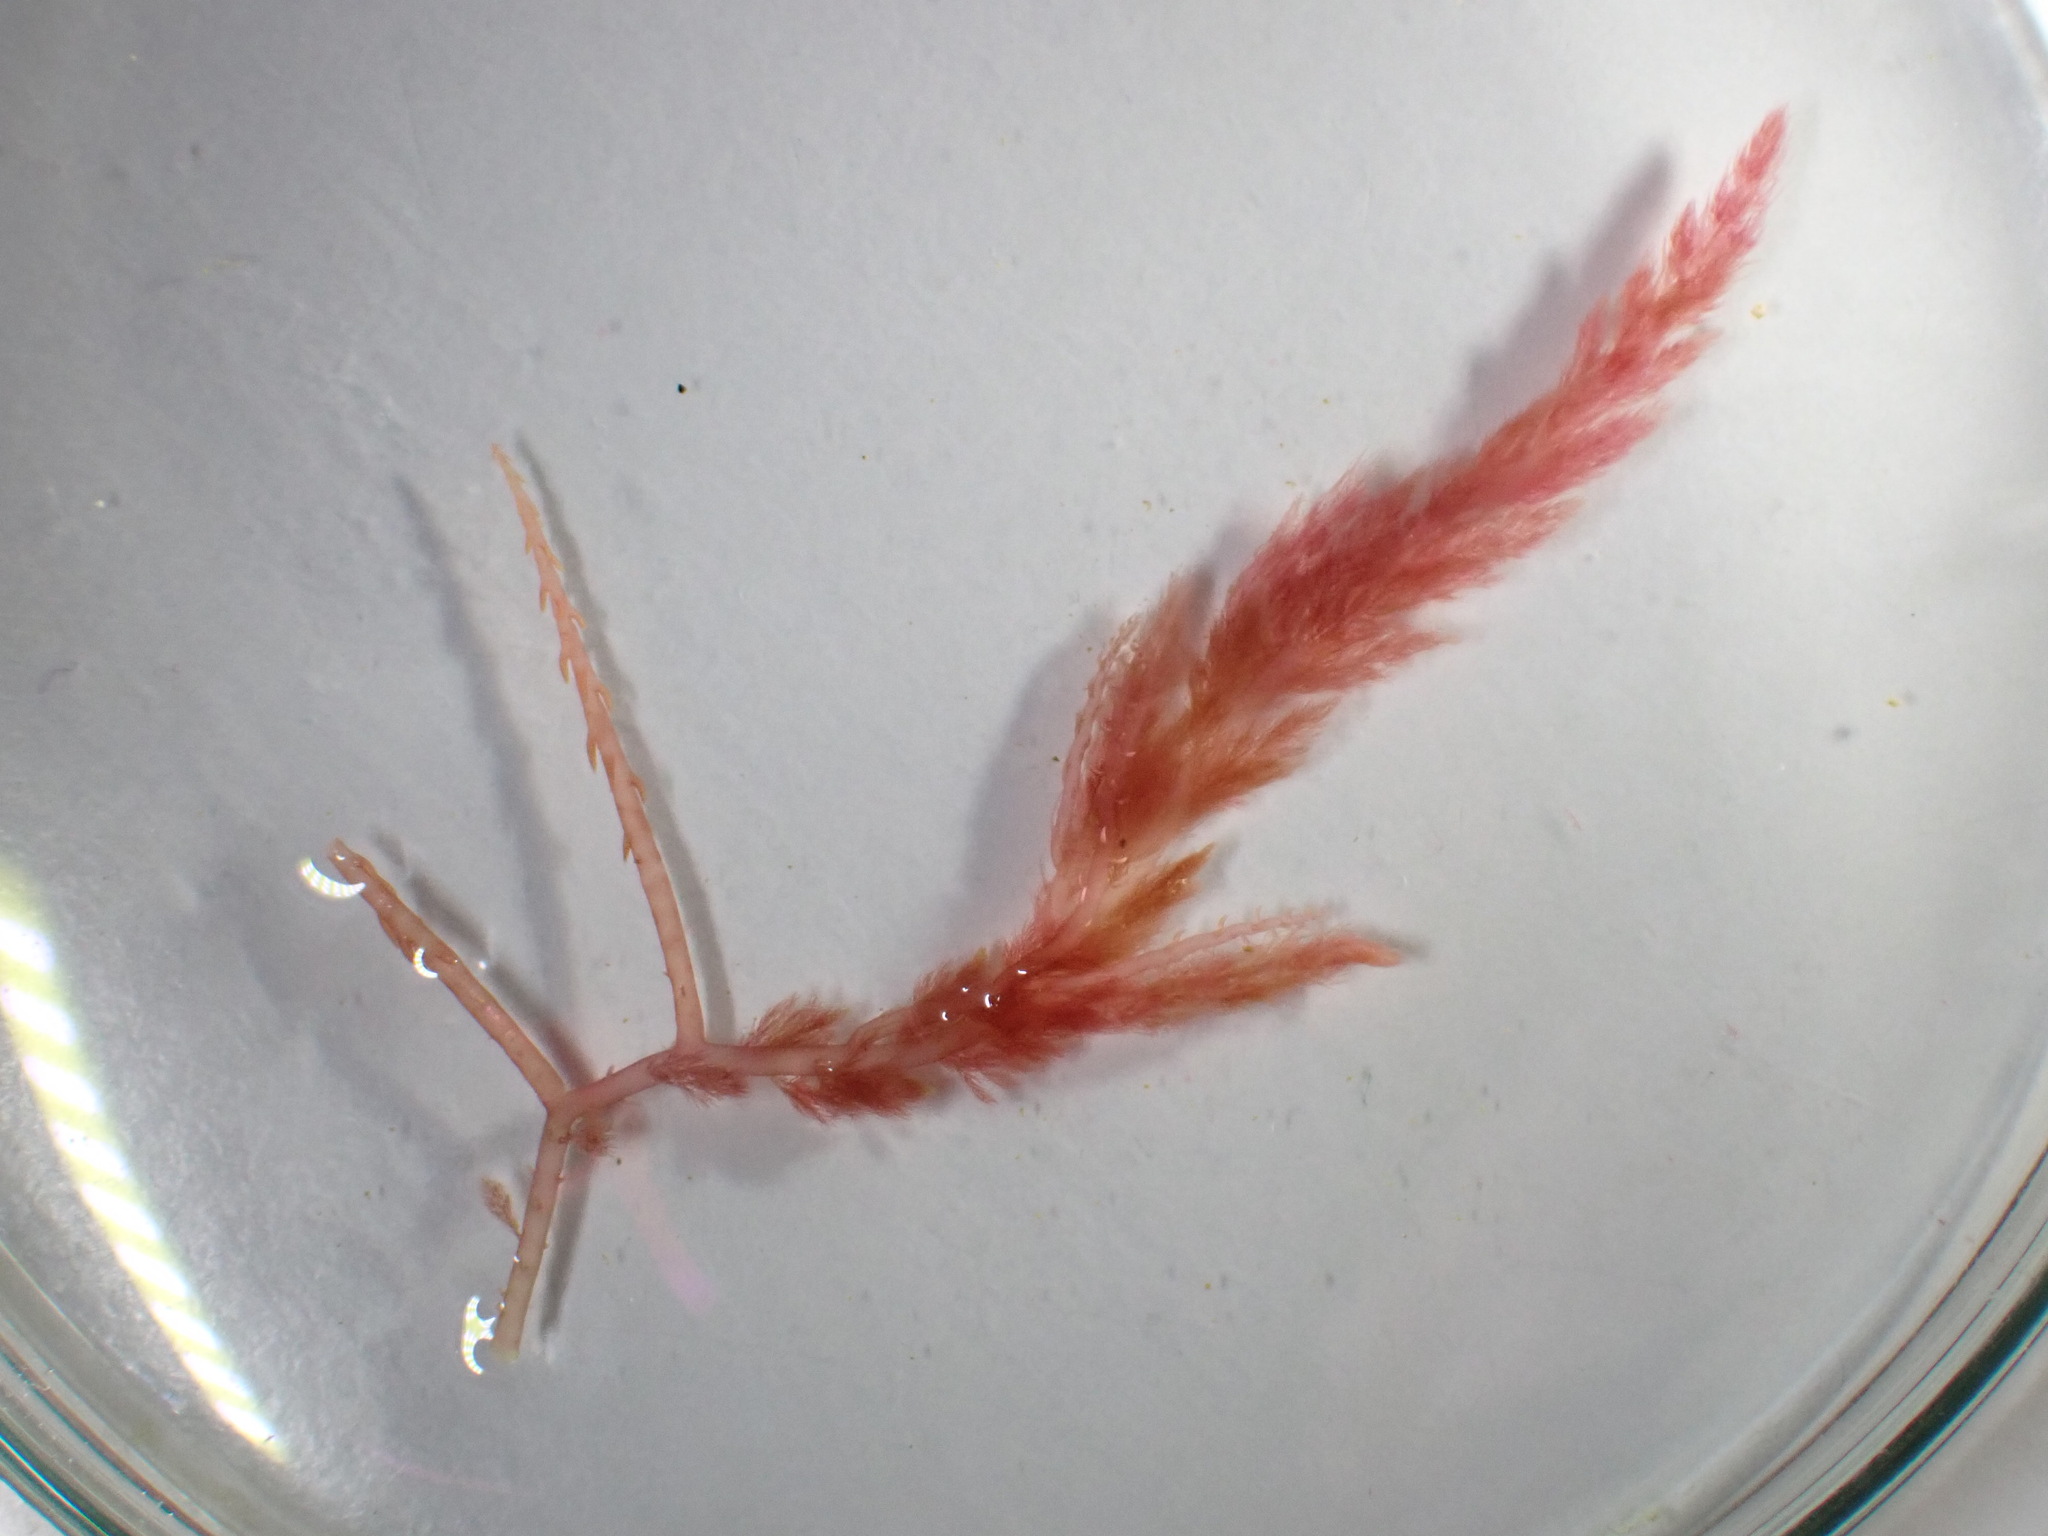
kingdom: Plantae
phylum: Rhodophyta
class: Florideophyceae
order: Bonnemaisoniales
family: Bonnemaisoniaceae
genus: Asparagopsis
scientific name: Asparagopsis armata
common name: Harpoon weed
